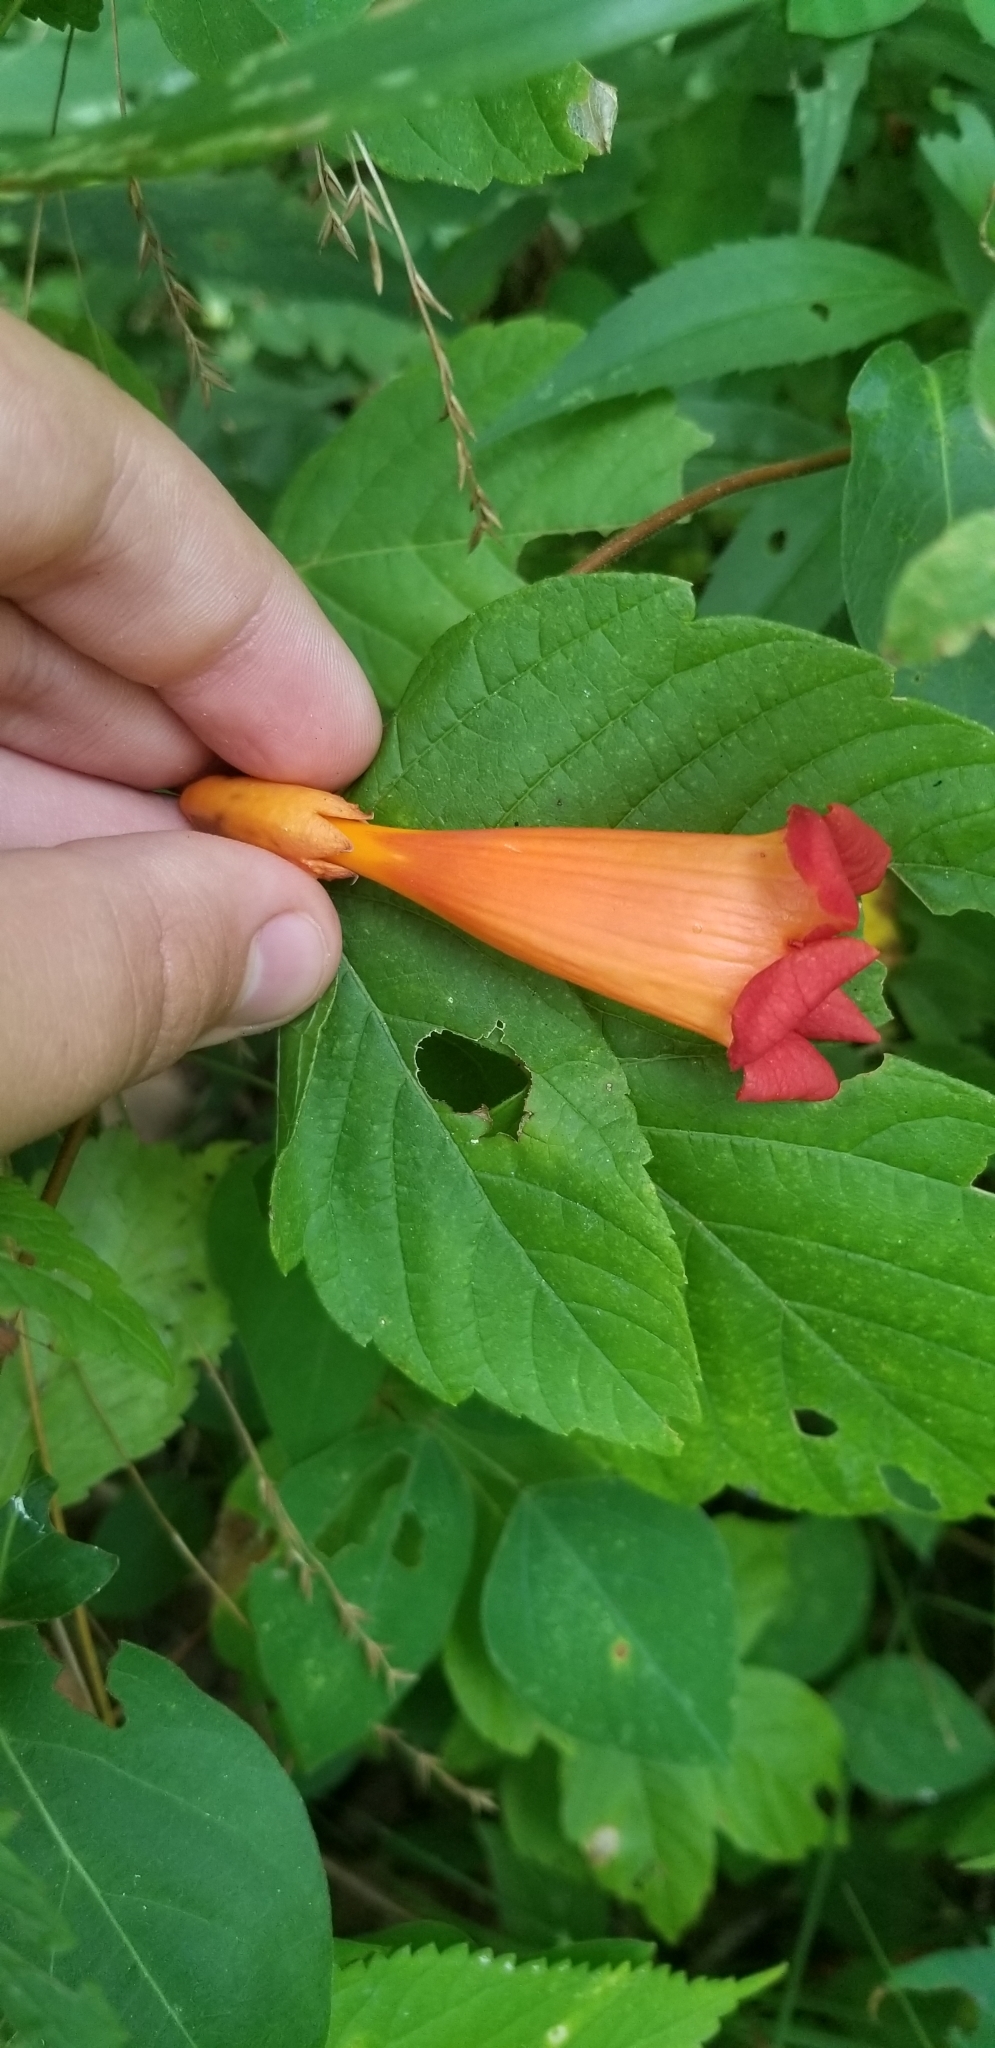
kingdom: Plantae
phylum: Tracheophyta
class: Magnoliopsida
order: Lamiales
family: Bignoniaceae
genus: Campsis
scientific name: Campsis radicans
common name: Trumpet-creeper
